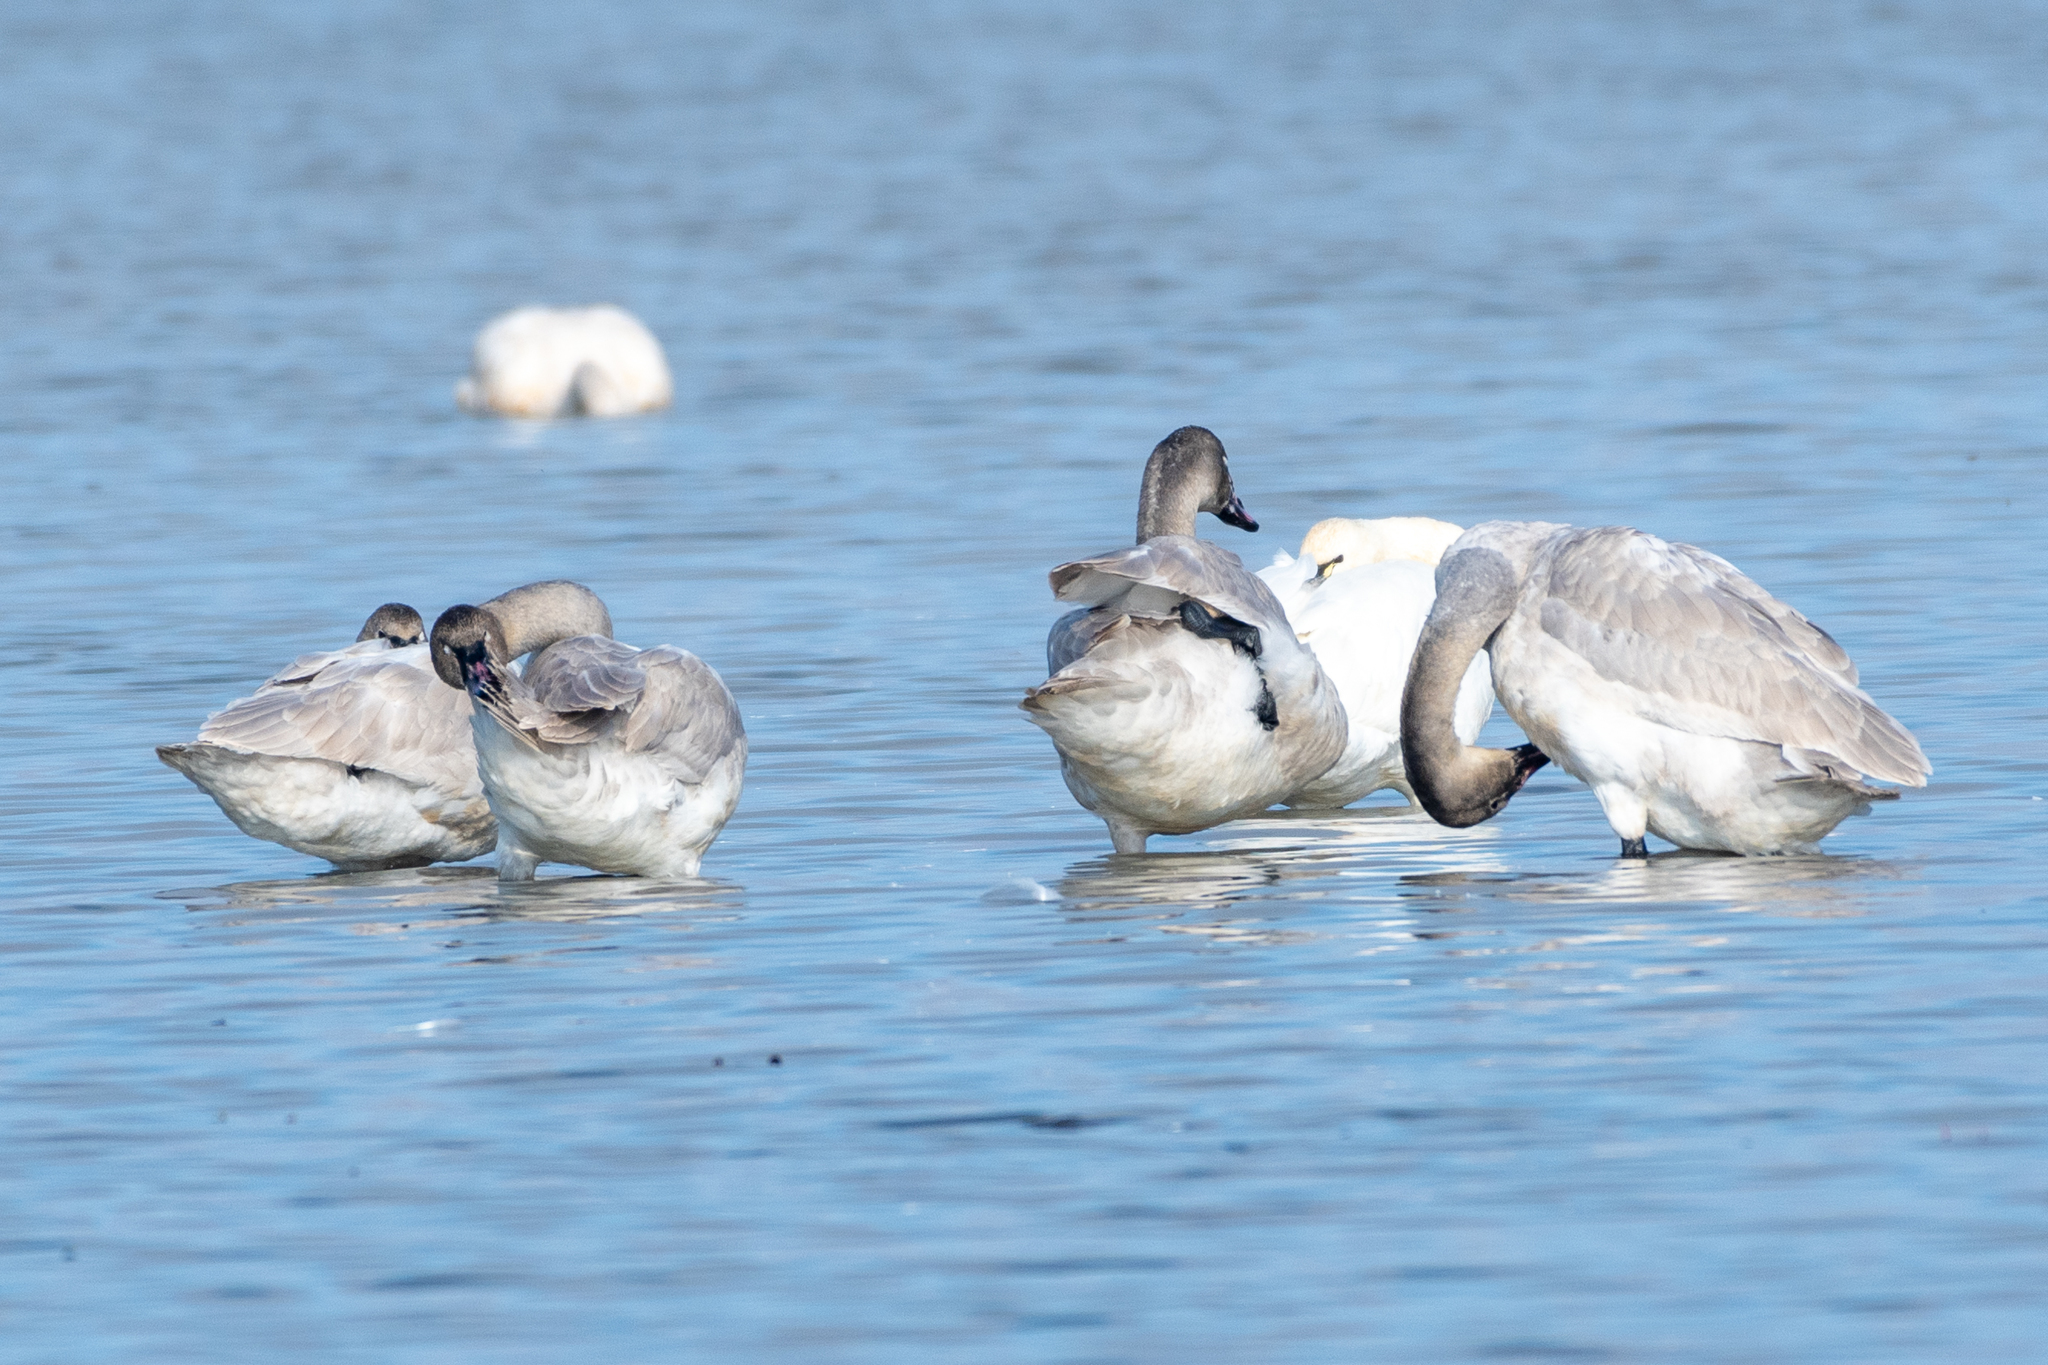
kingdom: Animalia
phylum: Chordata
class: Aves
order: Anseriformes
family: Anatidae
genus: Cygnus
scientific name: Cygnus columbianus
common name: Tundra swan
